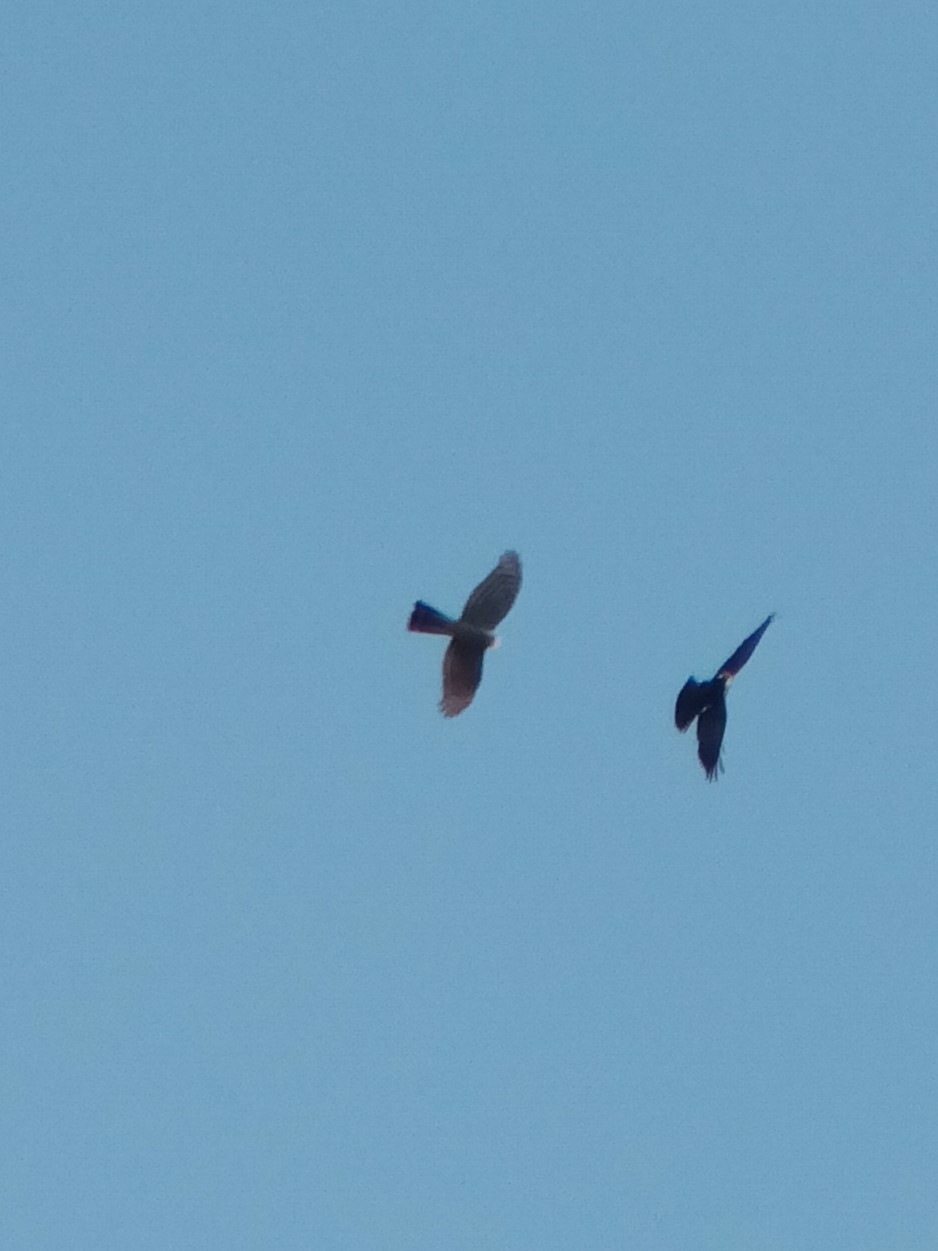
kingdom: Animalia
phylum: Chordata
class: Aves
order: Accipitriformes
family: Accipitridae
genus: Accipiter
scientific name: Accipiter nisus
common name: Eurasian sparrowhawk
